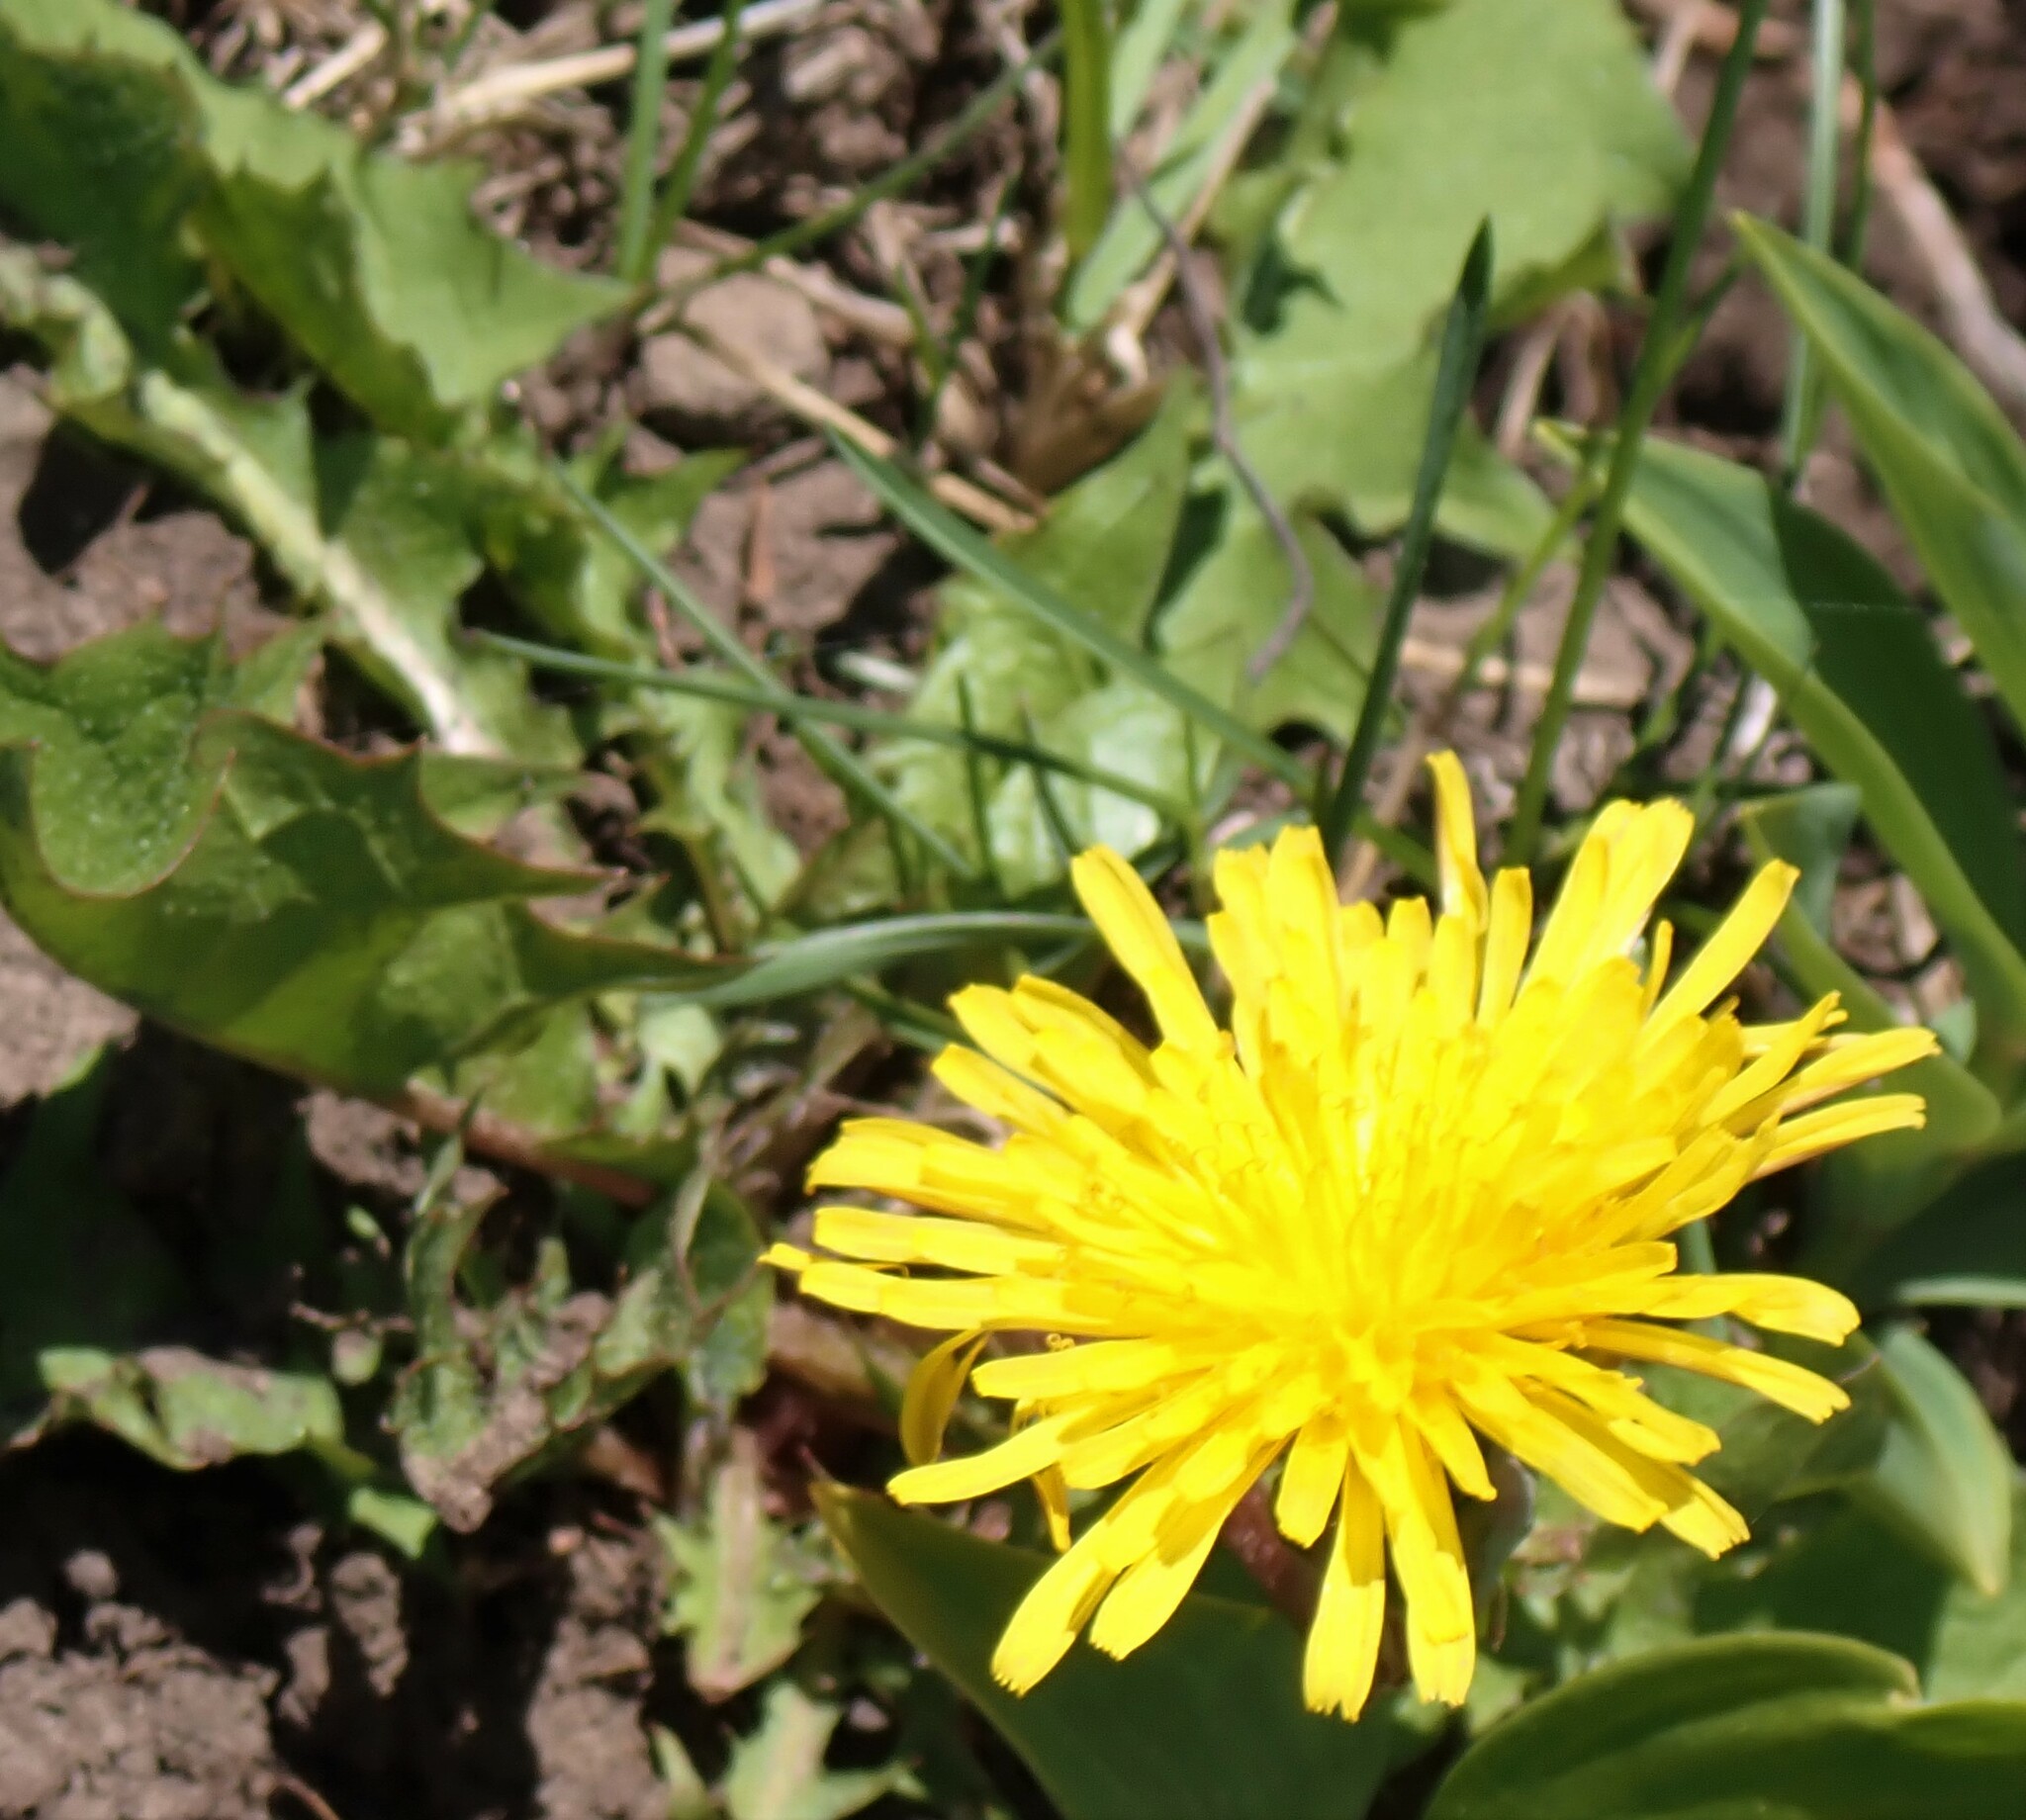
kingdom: Plantae
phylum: Tracheophyta
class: Magnoliopsida
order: Asterales
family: Asteraceae
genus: Taraxacum
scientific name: Taraxacum officinale
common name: Common dandelion
